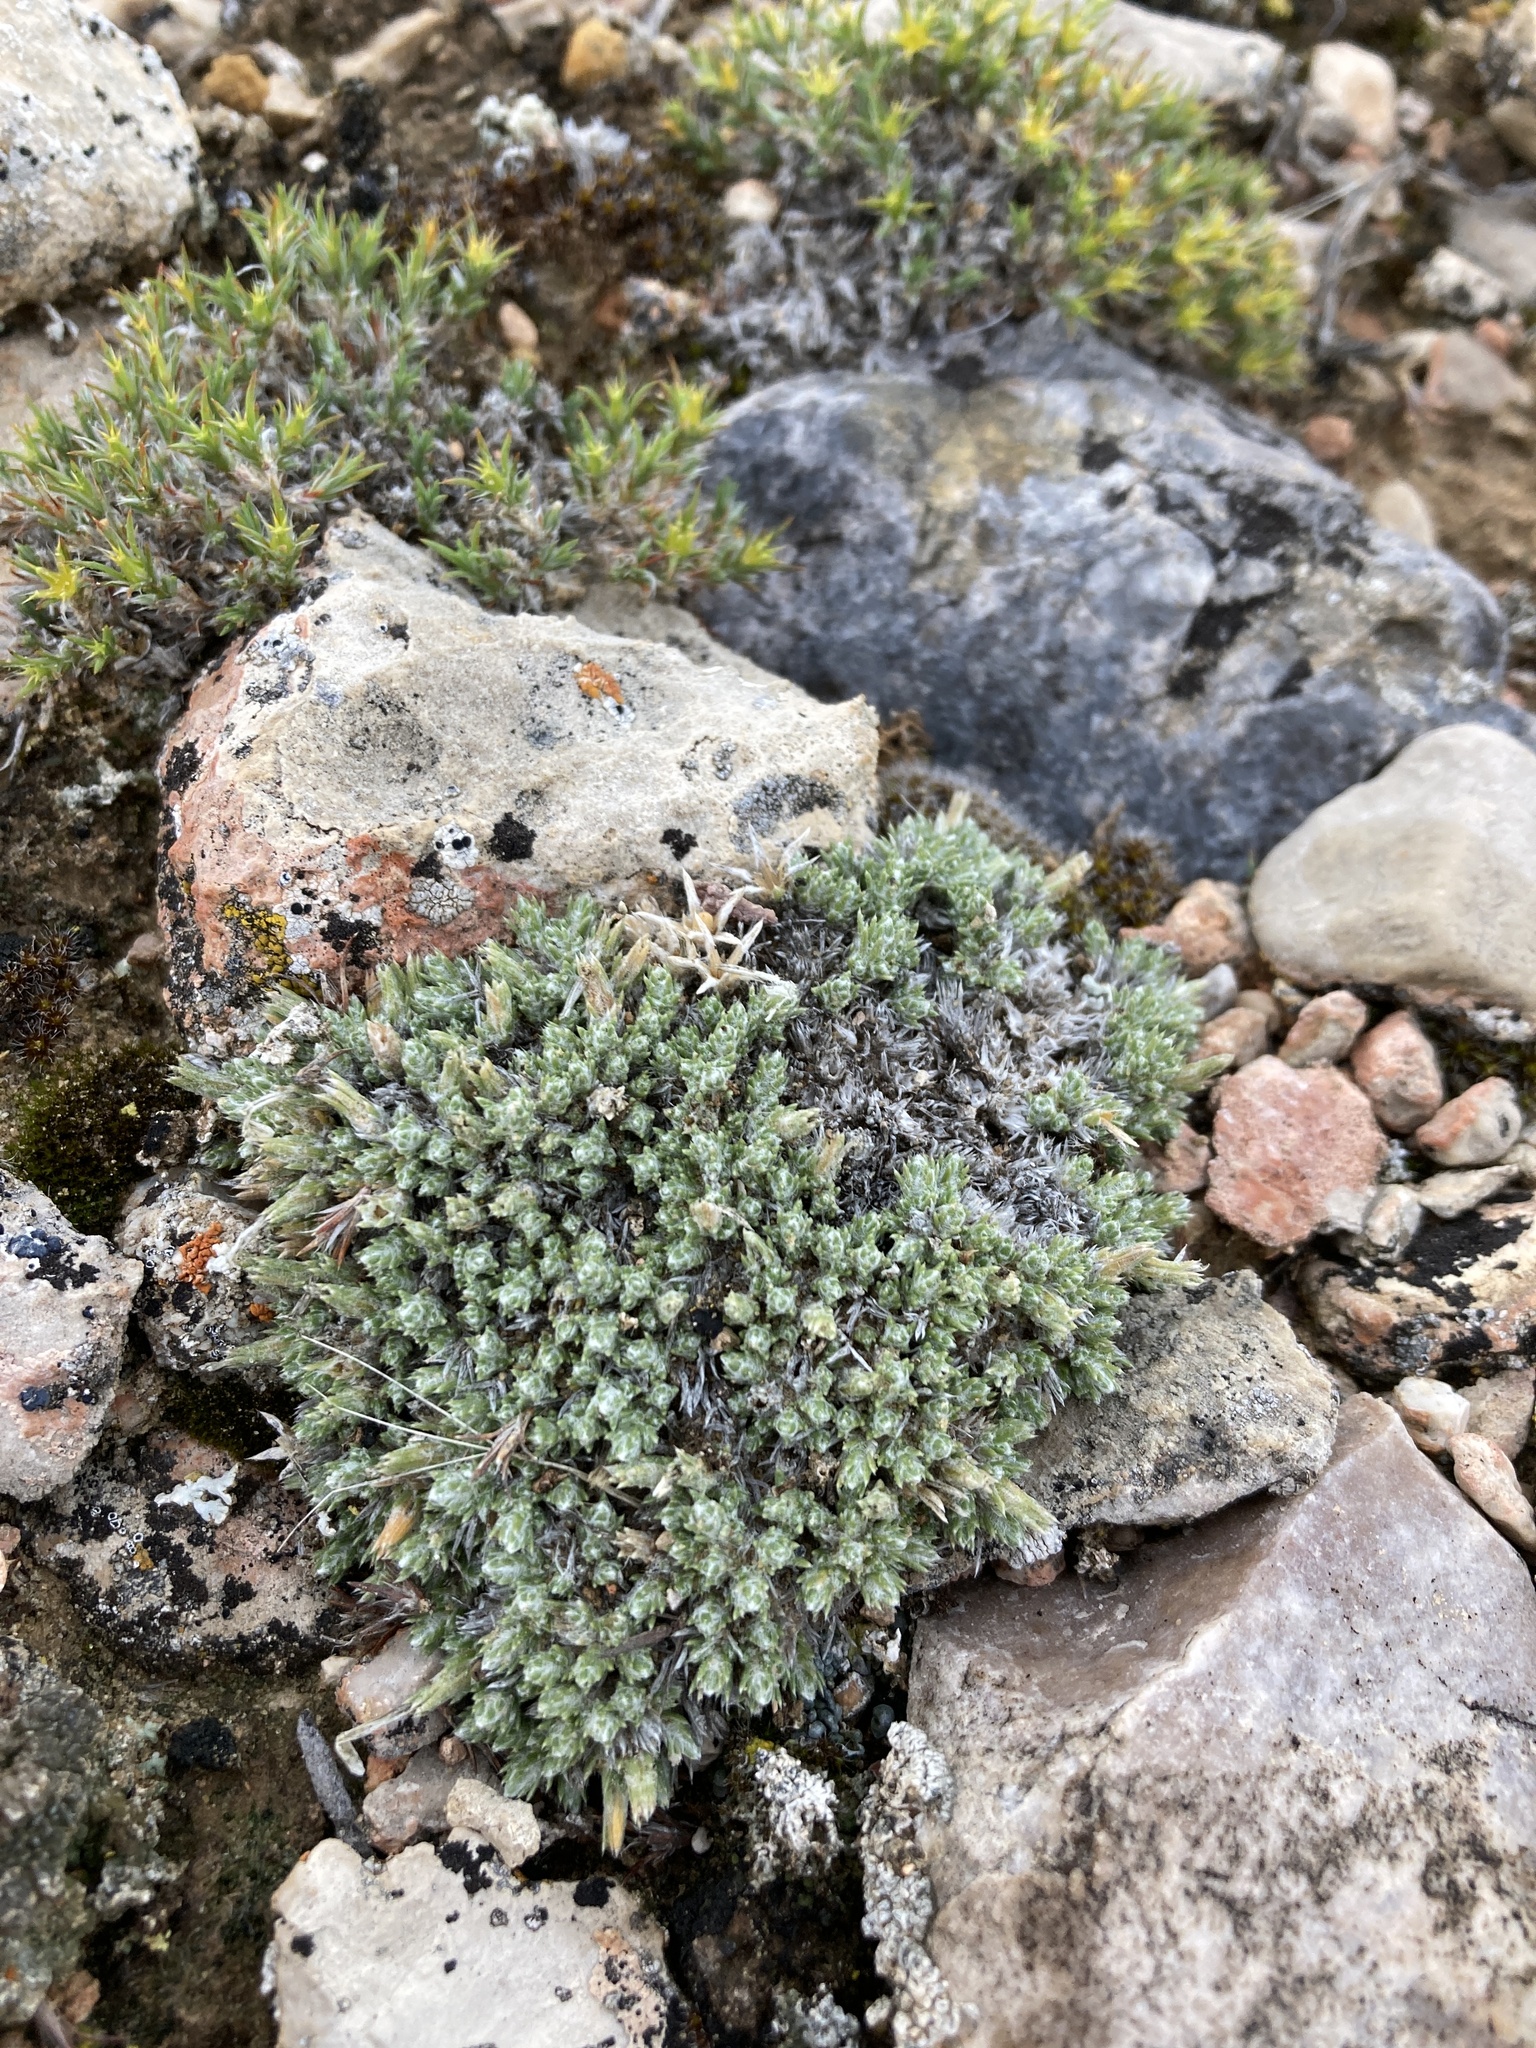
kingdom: Plantae
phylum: Tracheophyta
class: Magnoliopsida
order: Ericales
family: Polemoniaceae
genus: Phlox
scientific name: Phlox hoodii
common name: Moss phlox
